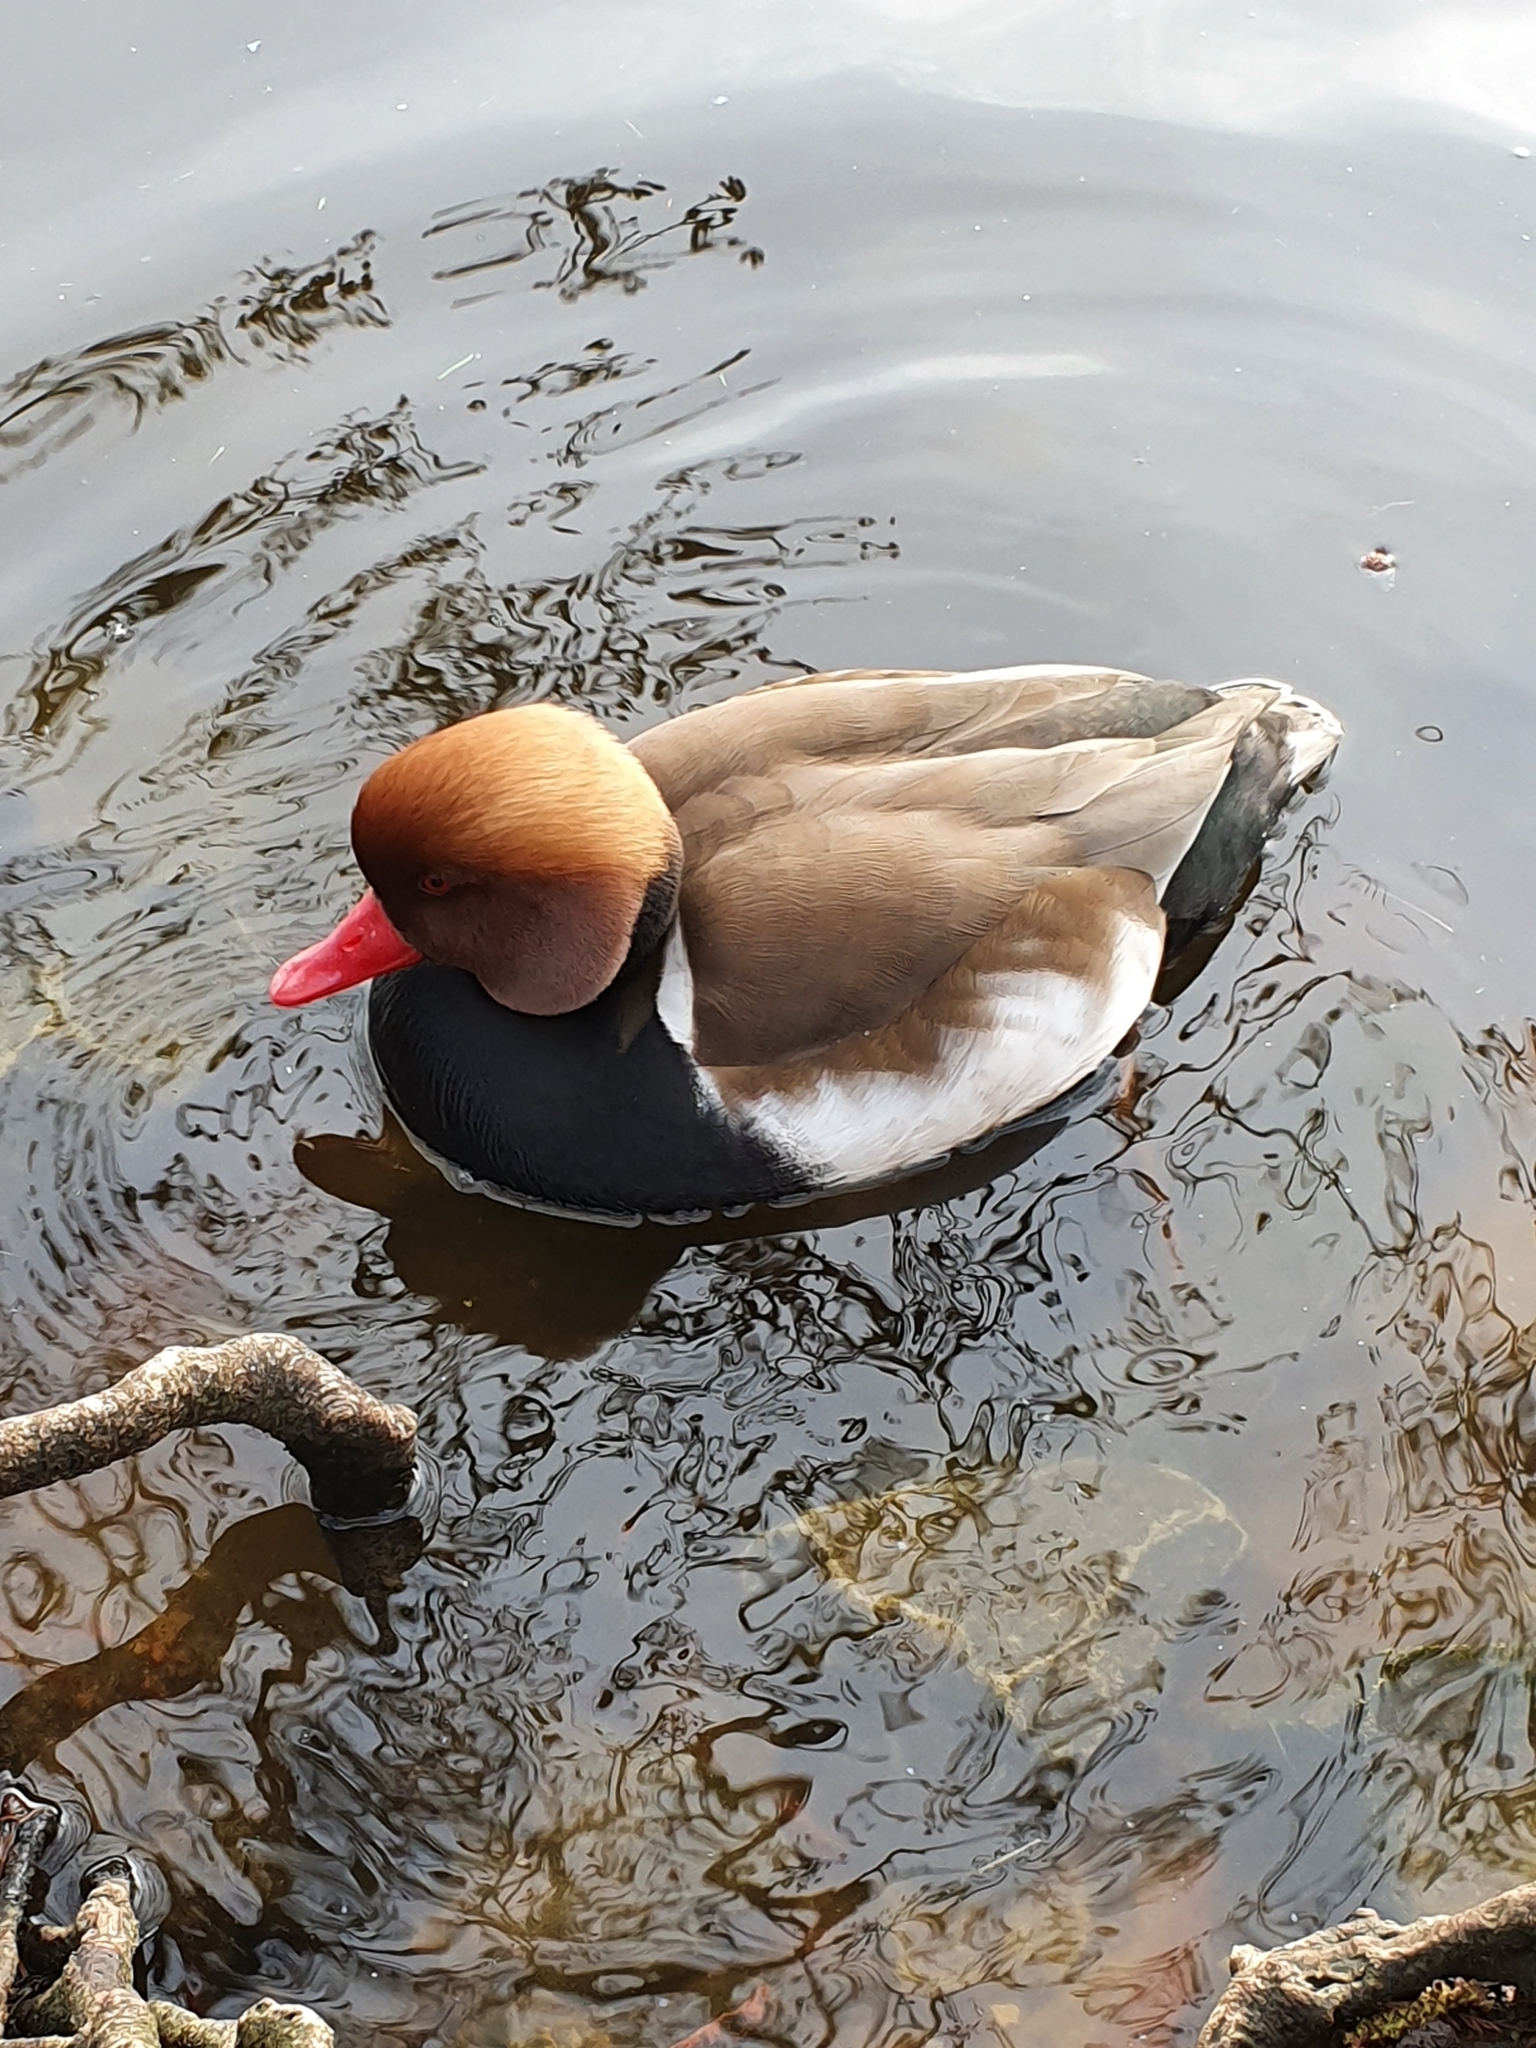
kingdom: Animalia
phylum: Chordata
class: Aves
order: Anseriformes
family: Anatidae
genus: Netta
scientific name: Netta rufina
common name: Red-crested pochard
